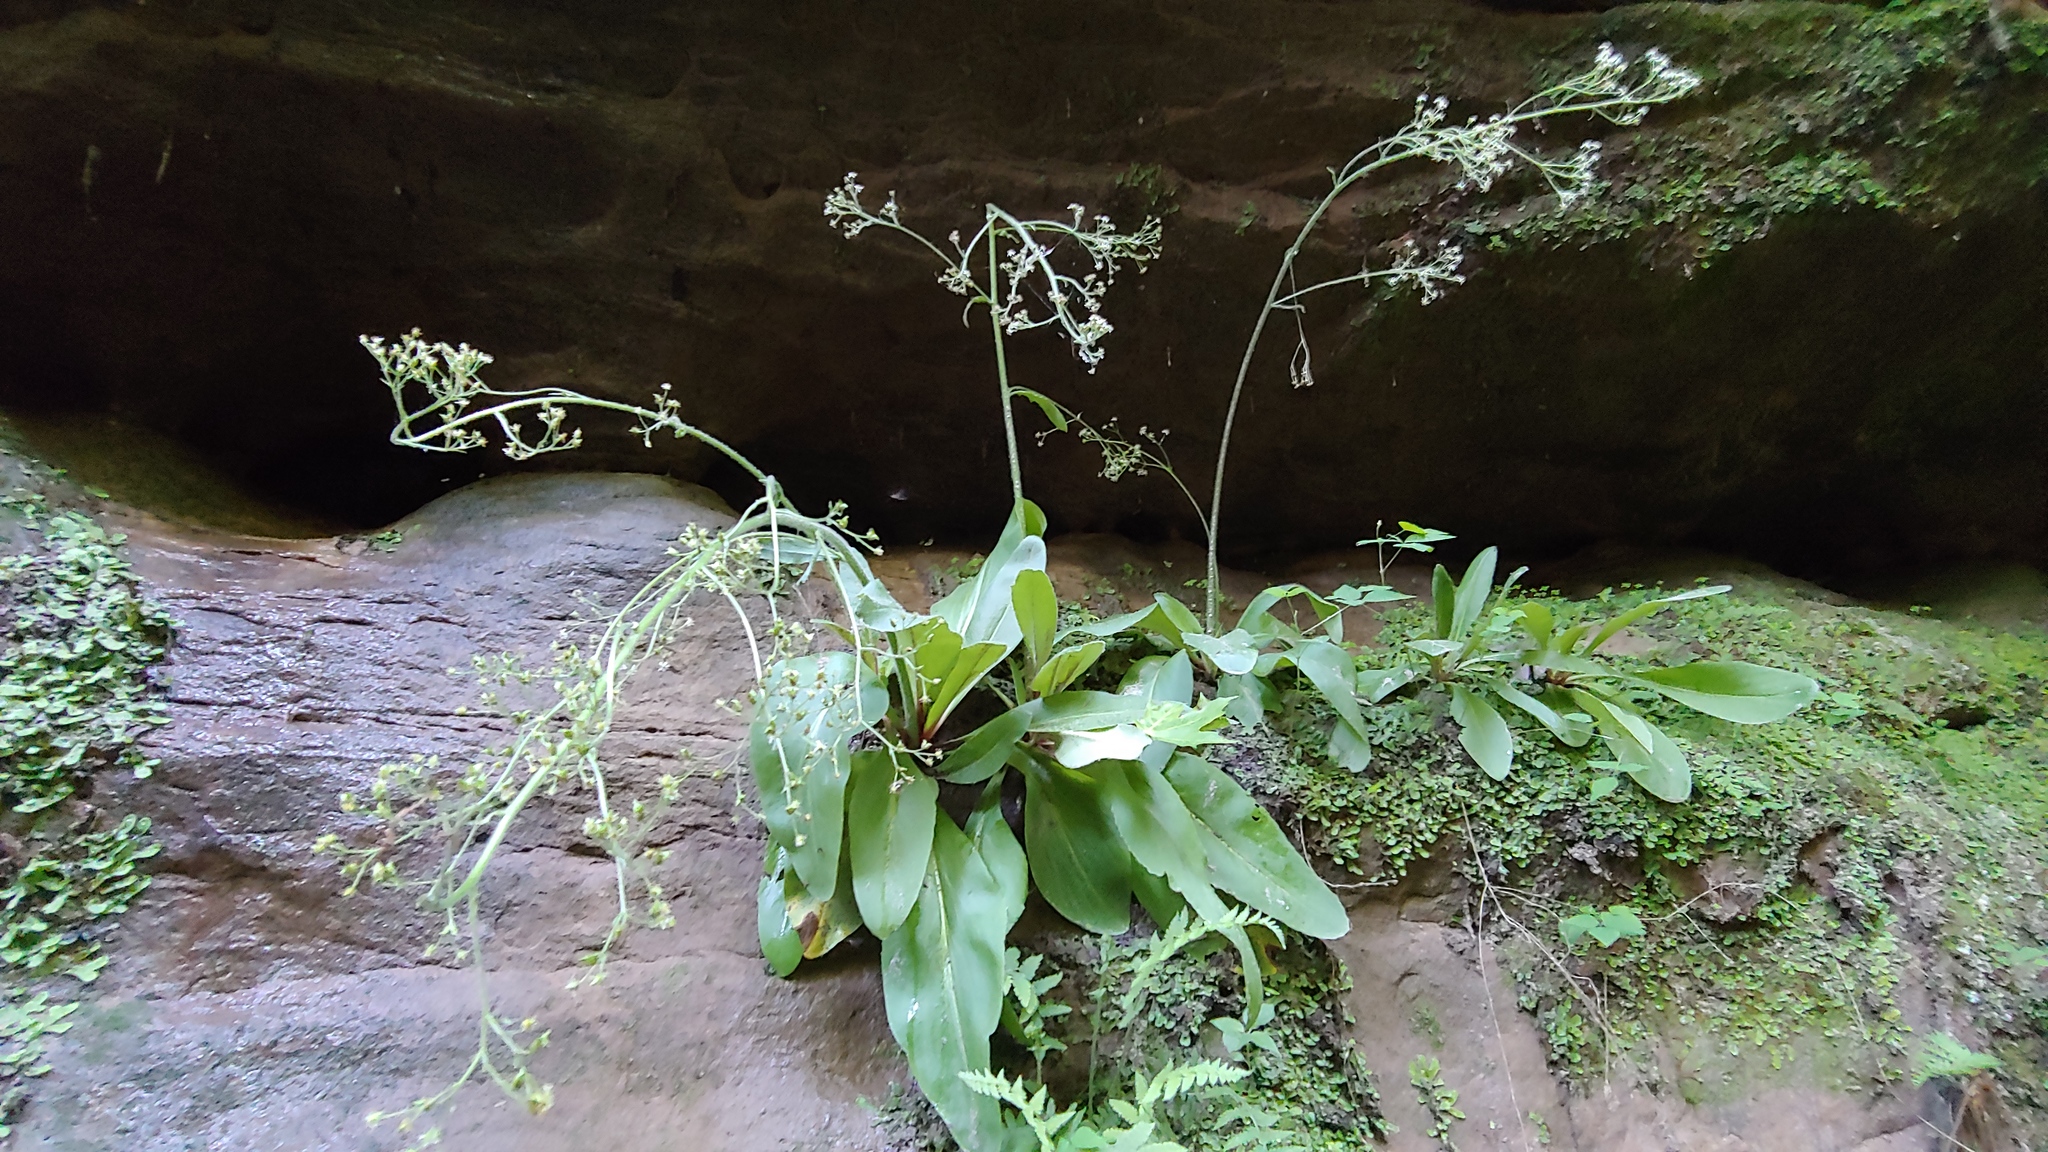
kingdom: Plantae
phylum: Tracheophyta
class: Magnoliopsida
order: Saxifragales
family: Saxifragaceae
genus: Micranthes
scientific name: Micranthes pensylvanica
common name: Marsh saxifrage
